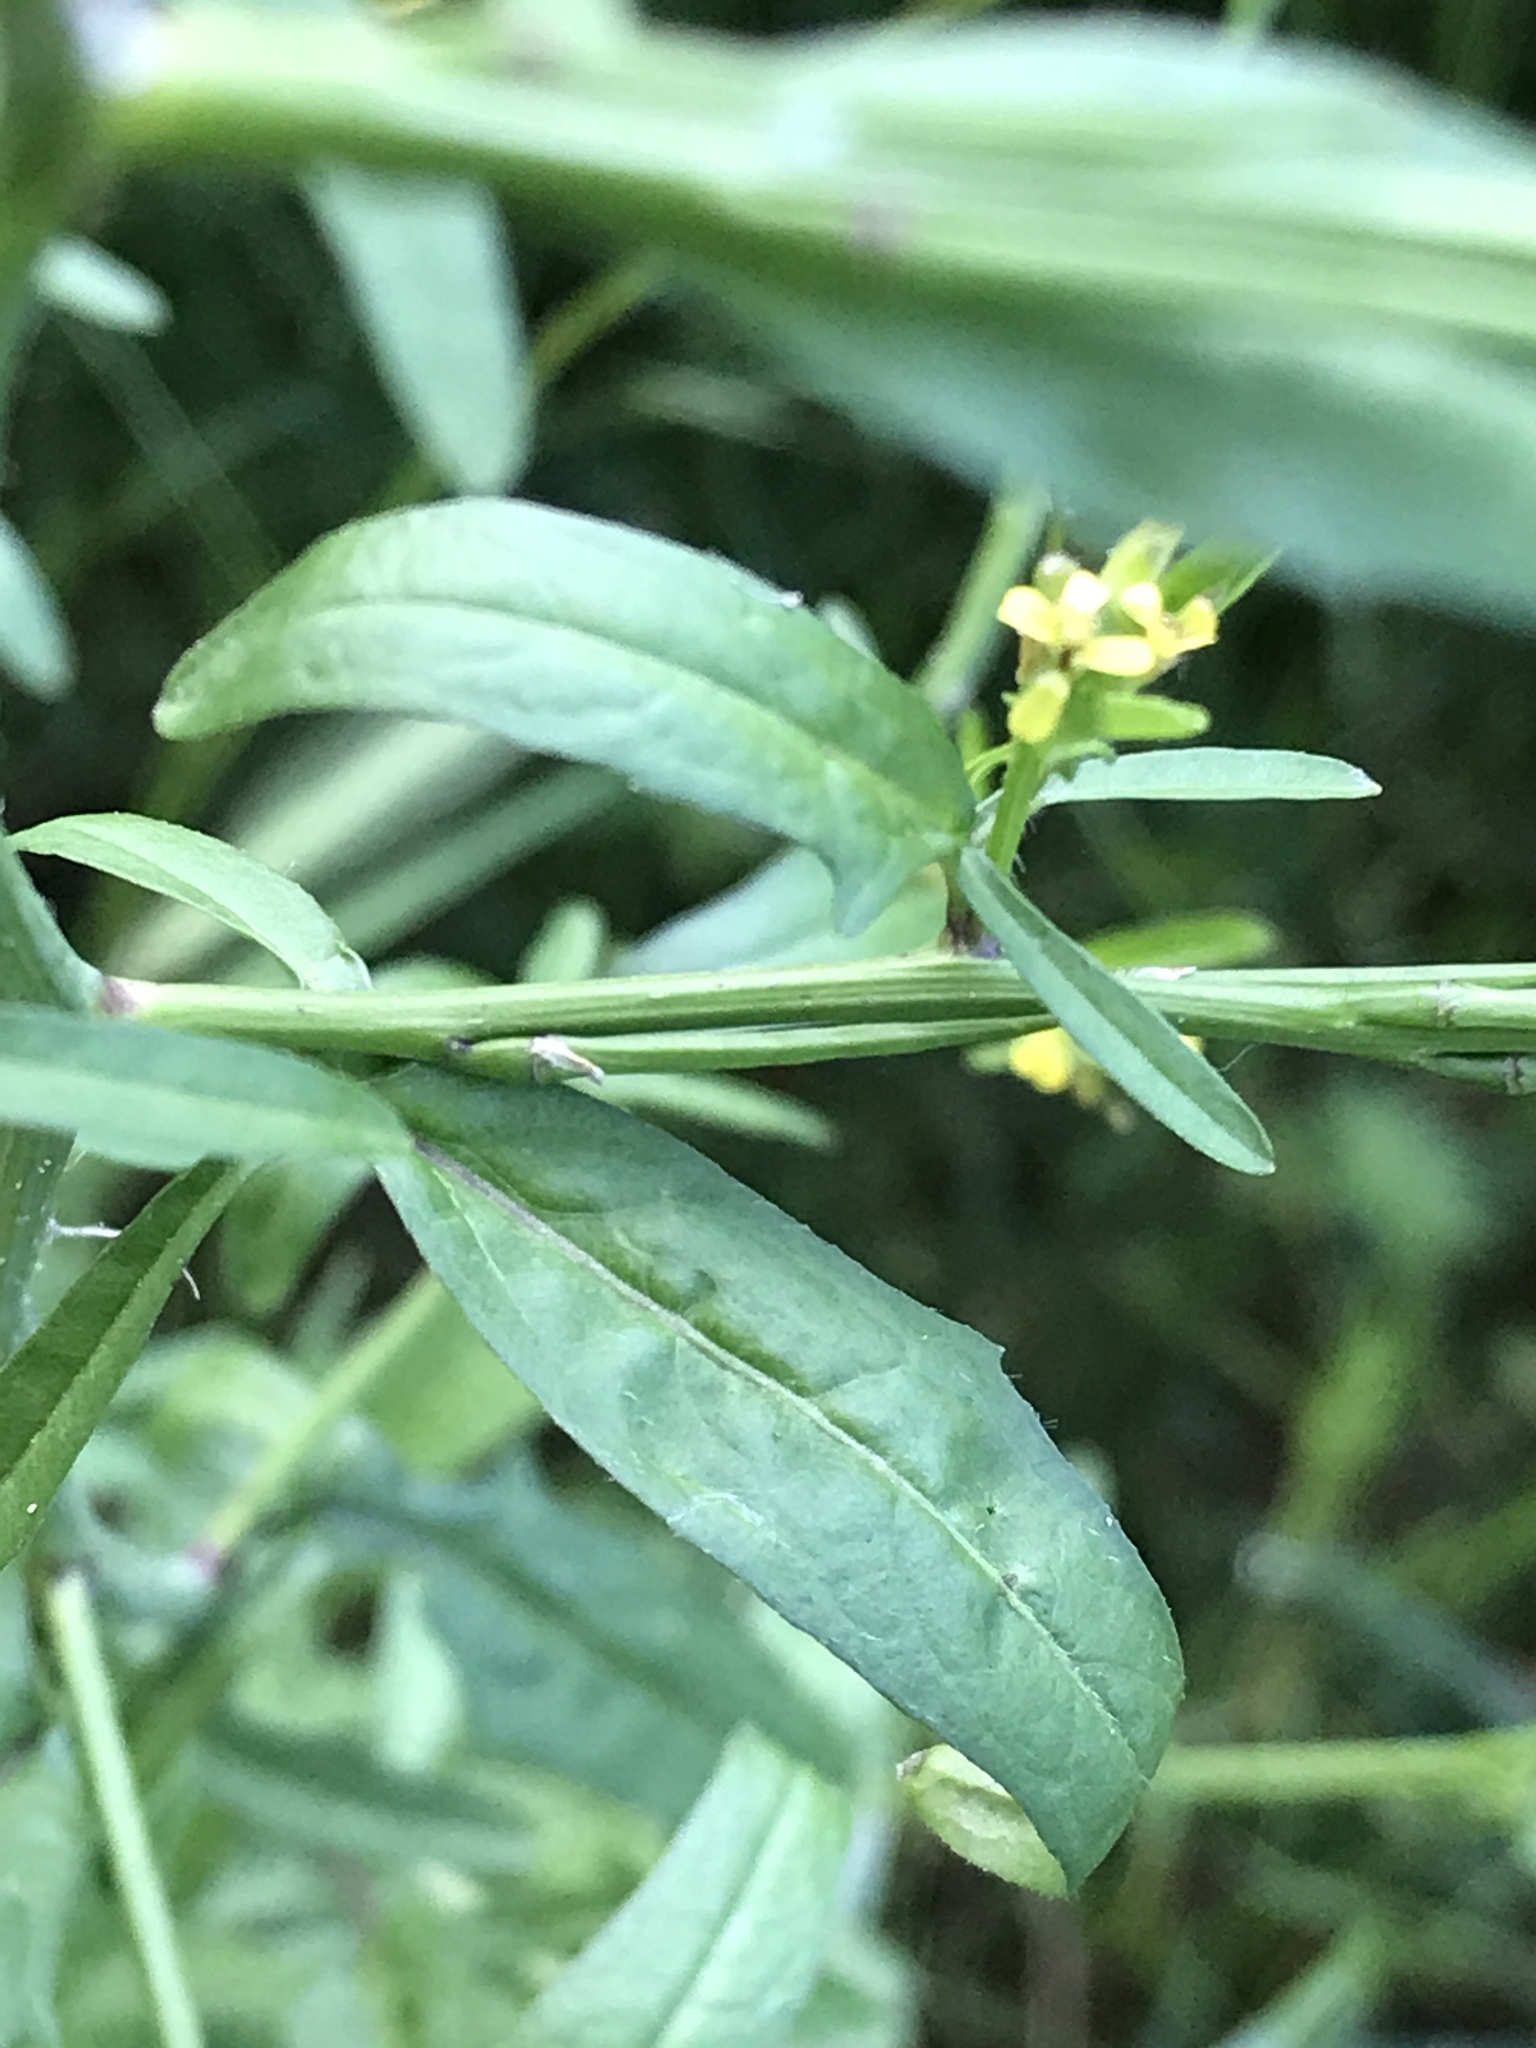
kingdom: Plantae
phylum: Tracheophyta
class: Magnoliopsida
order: Brassicales
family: Brassicaceae
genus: Sisymbrium
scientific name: Sisymbrium officinale
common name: Hedge mustard
